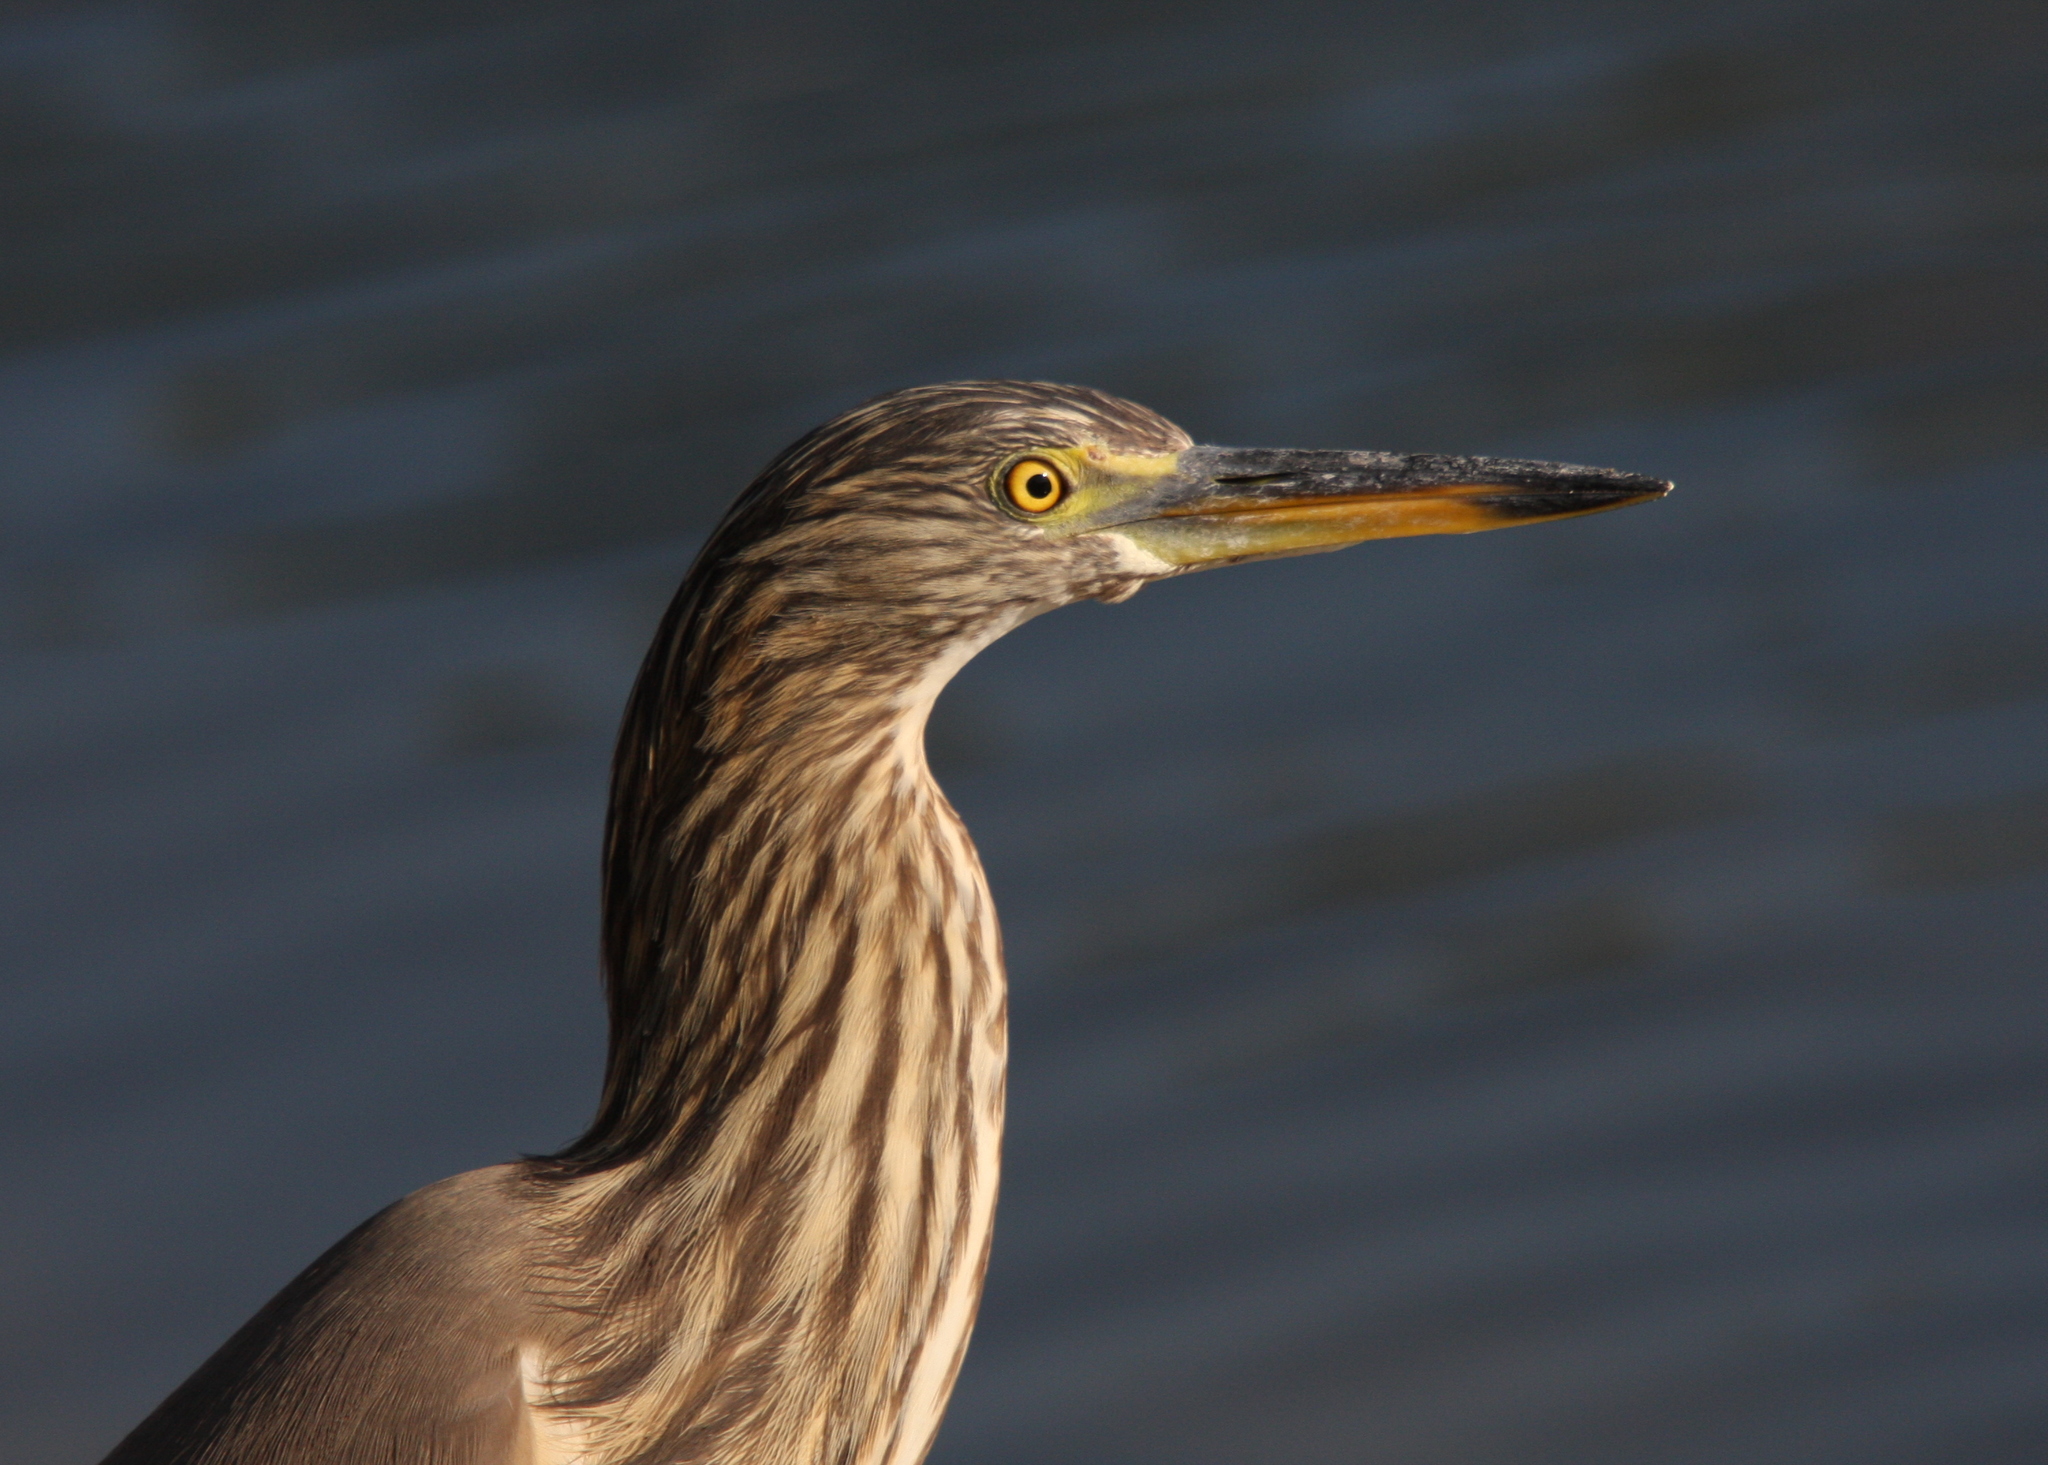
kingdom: Animalia
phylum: Chordata
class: Aves
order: Pelecaniformes
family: Ardeidae
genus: Ardeola
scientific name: Ardeola grayii
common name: Indian pond heron
